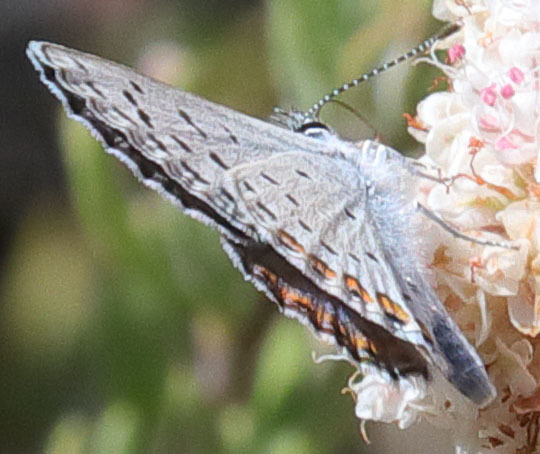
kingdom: Animalia
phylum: Arthropoda
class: Insecta
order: Lepidoptera
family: Lycaenidae
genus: Icaricia
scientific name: Icaricia acmon
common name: Acmon blue
